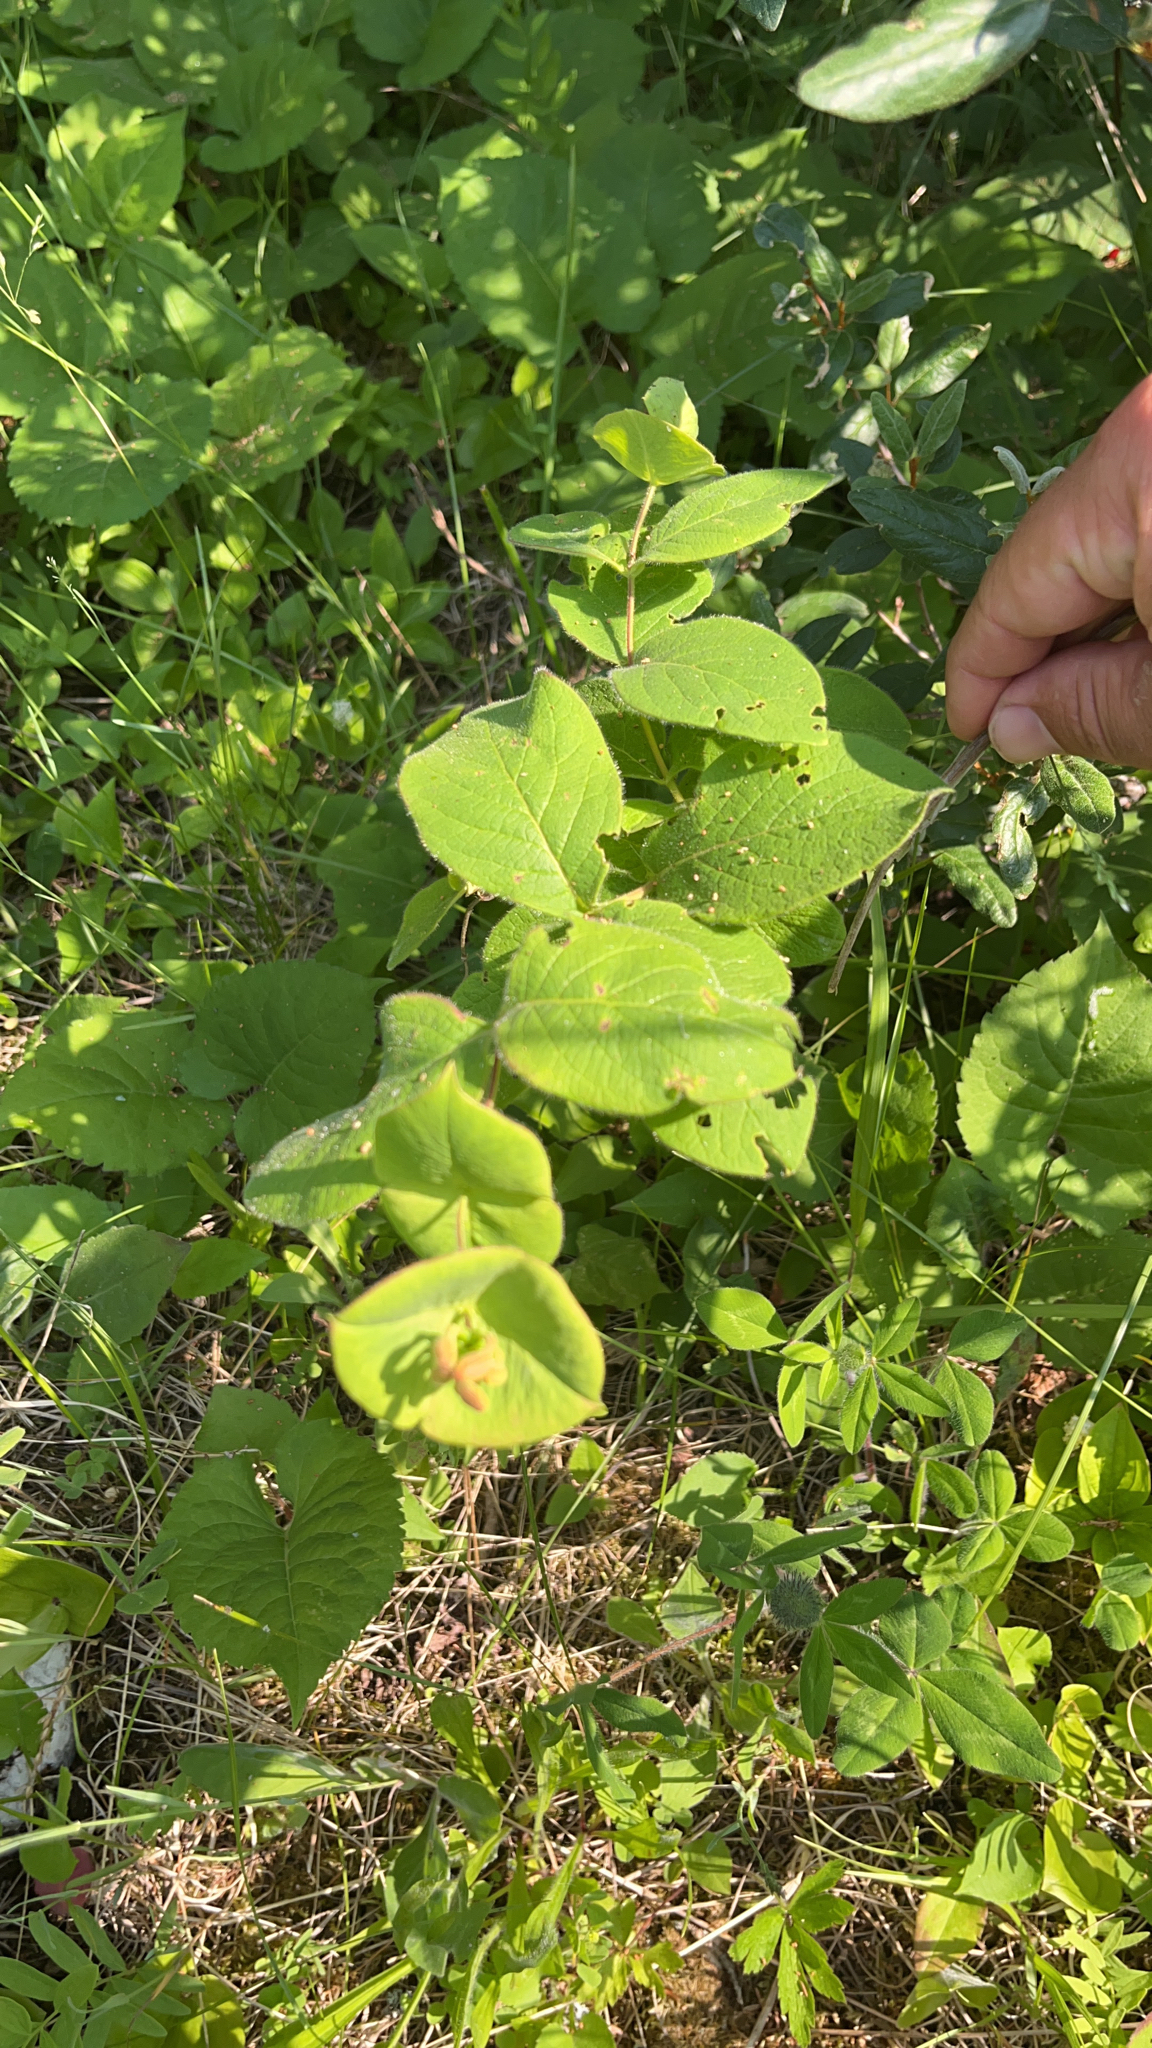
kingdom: Plantae
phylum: Tracheophyta
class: Magnoliopsida
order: Dipsacales
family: Caprifoliaceae
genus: Lonicera
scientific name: Lonicera dioica
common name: Limber honeysuckle
